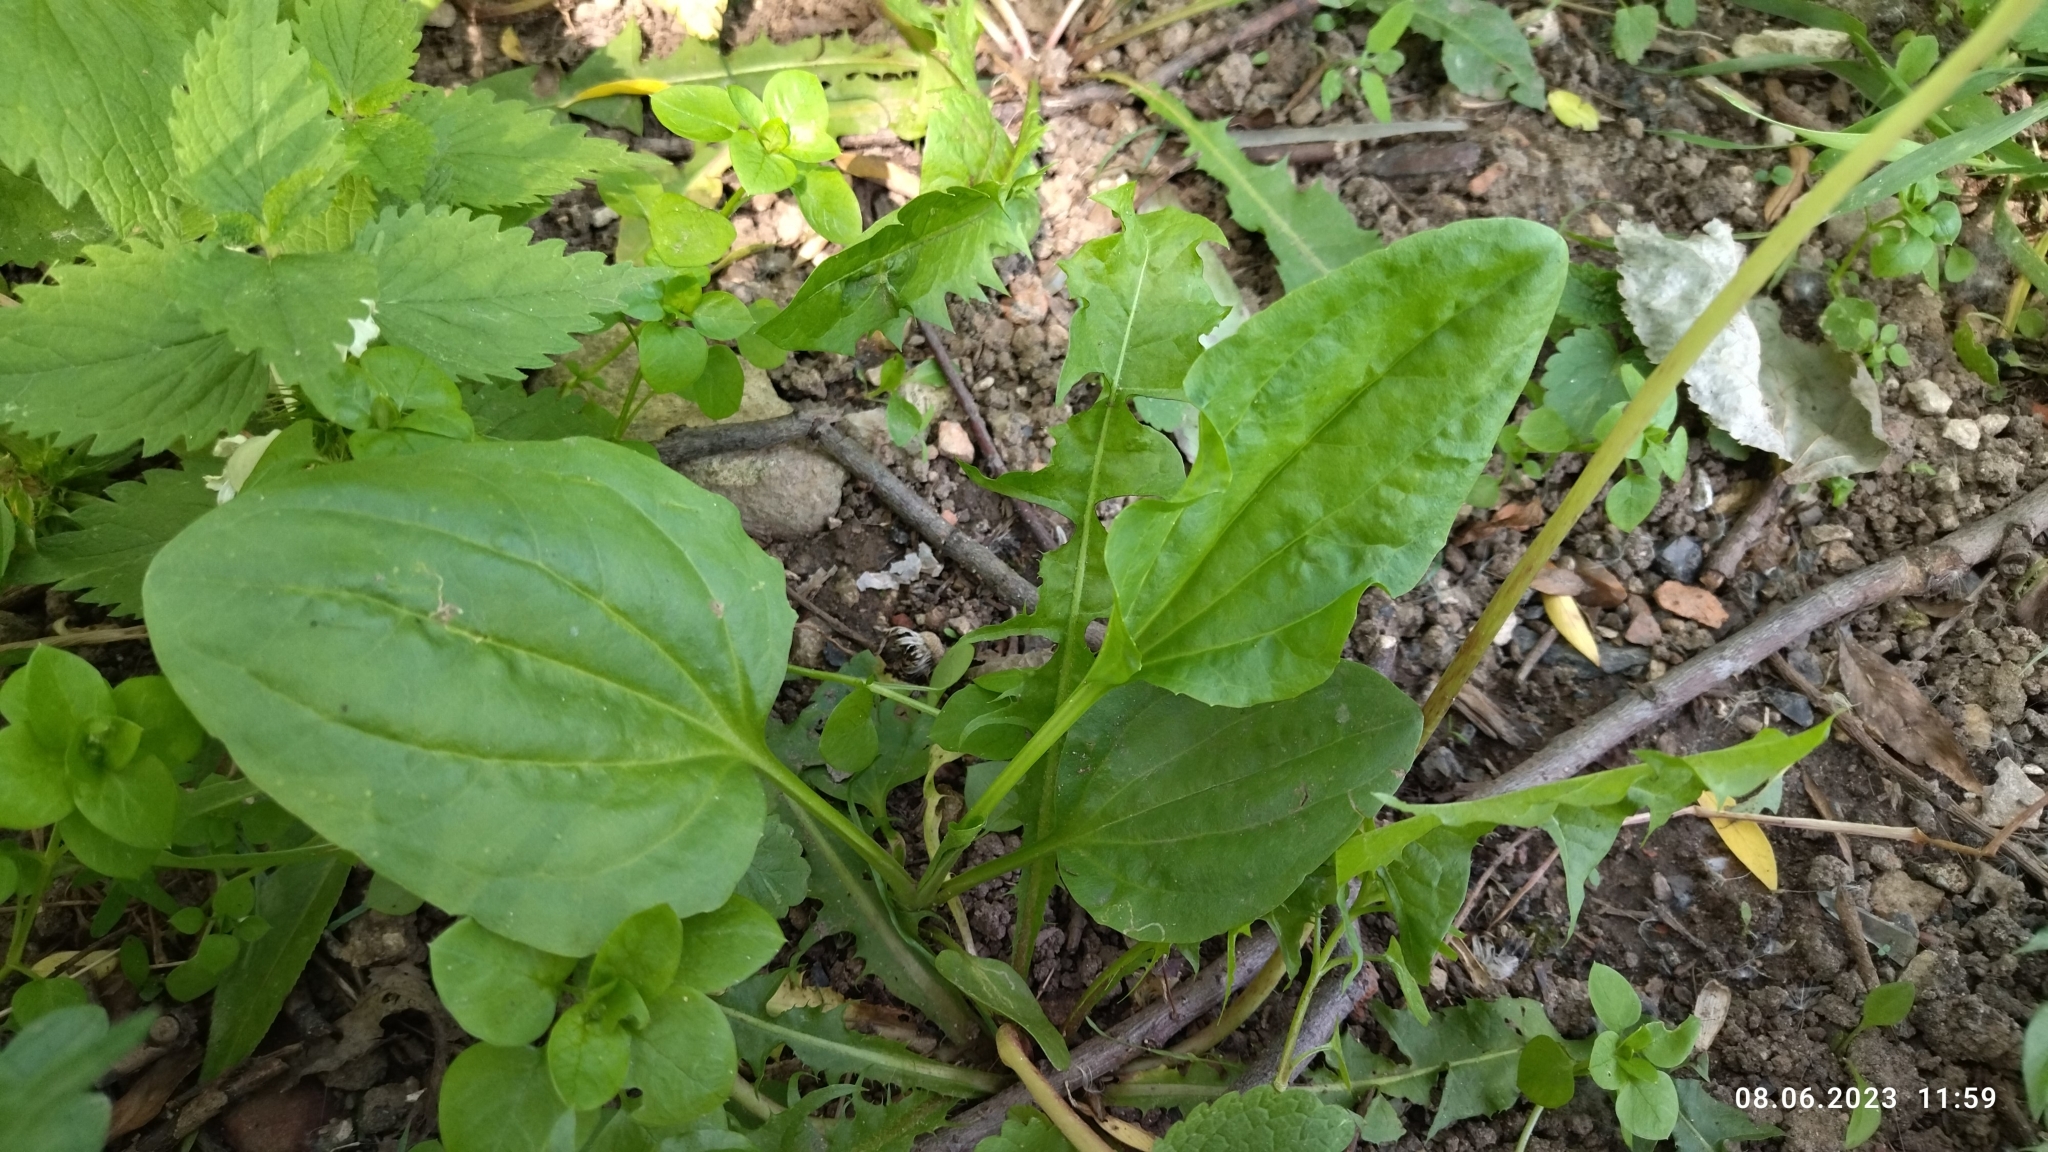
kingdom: Plantae
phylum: Tracheophyta
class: Magnoliopsida
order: Lamiales
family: Plantaginaceae
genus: Plantago
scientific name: Plantago major
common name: Common plantain
